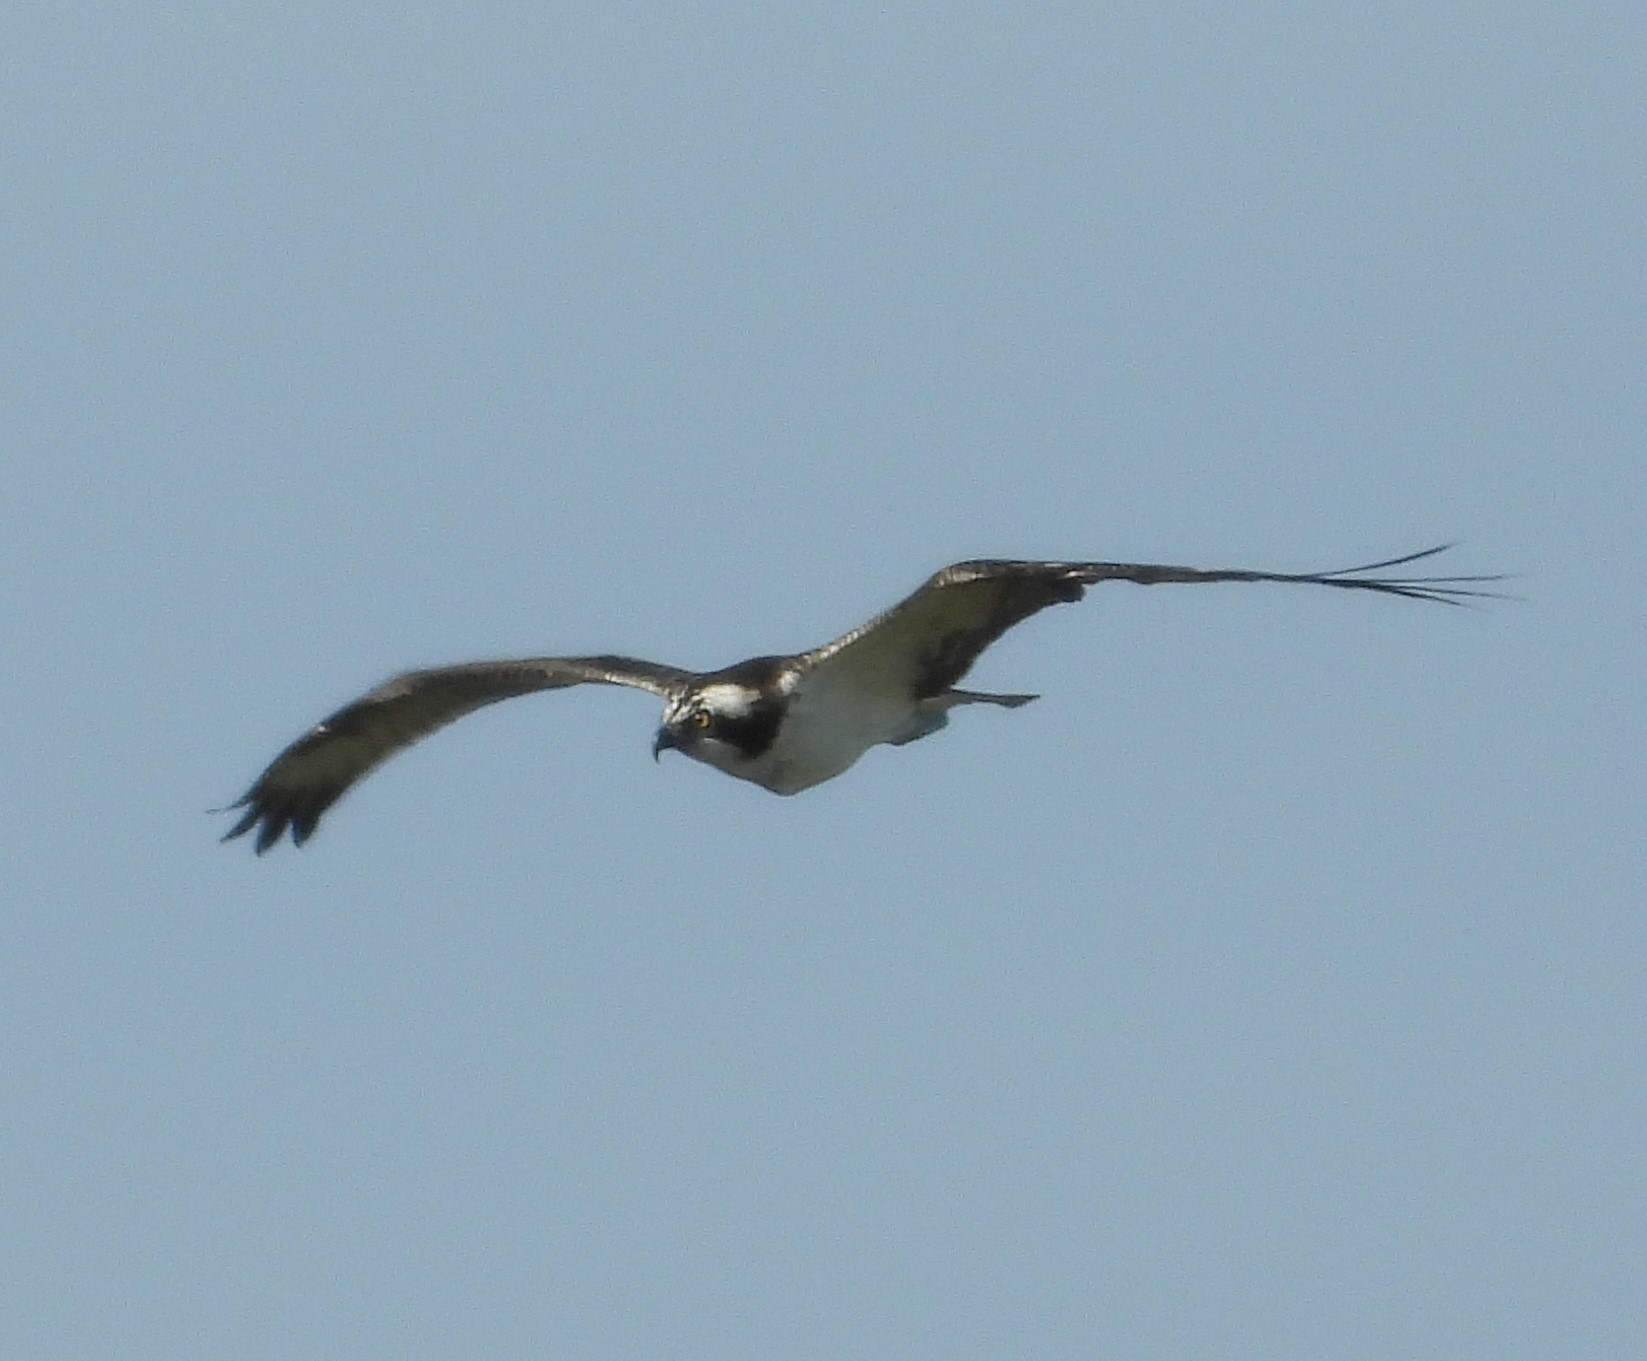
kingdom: Animalia
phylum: Chordata
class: Aves
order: Accipitriformes
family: Pandionidae
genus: Pandion
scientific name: Pandion haliaetus
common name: Osprey
